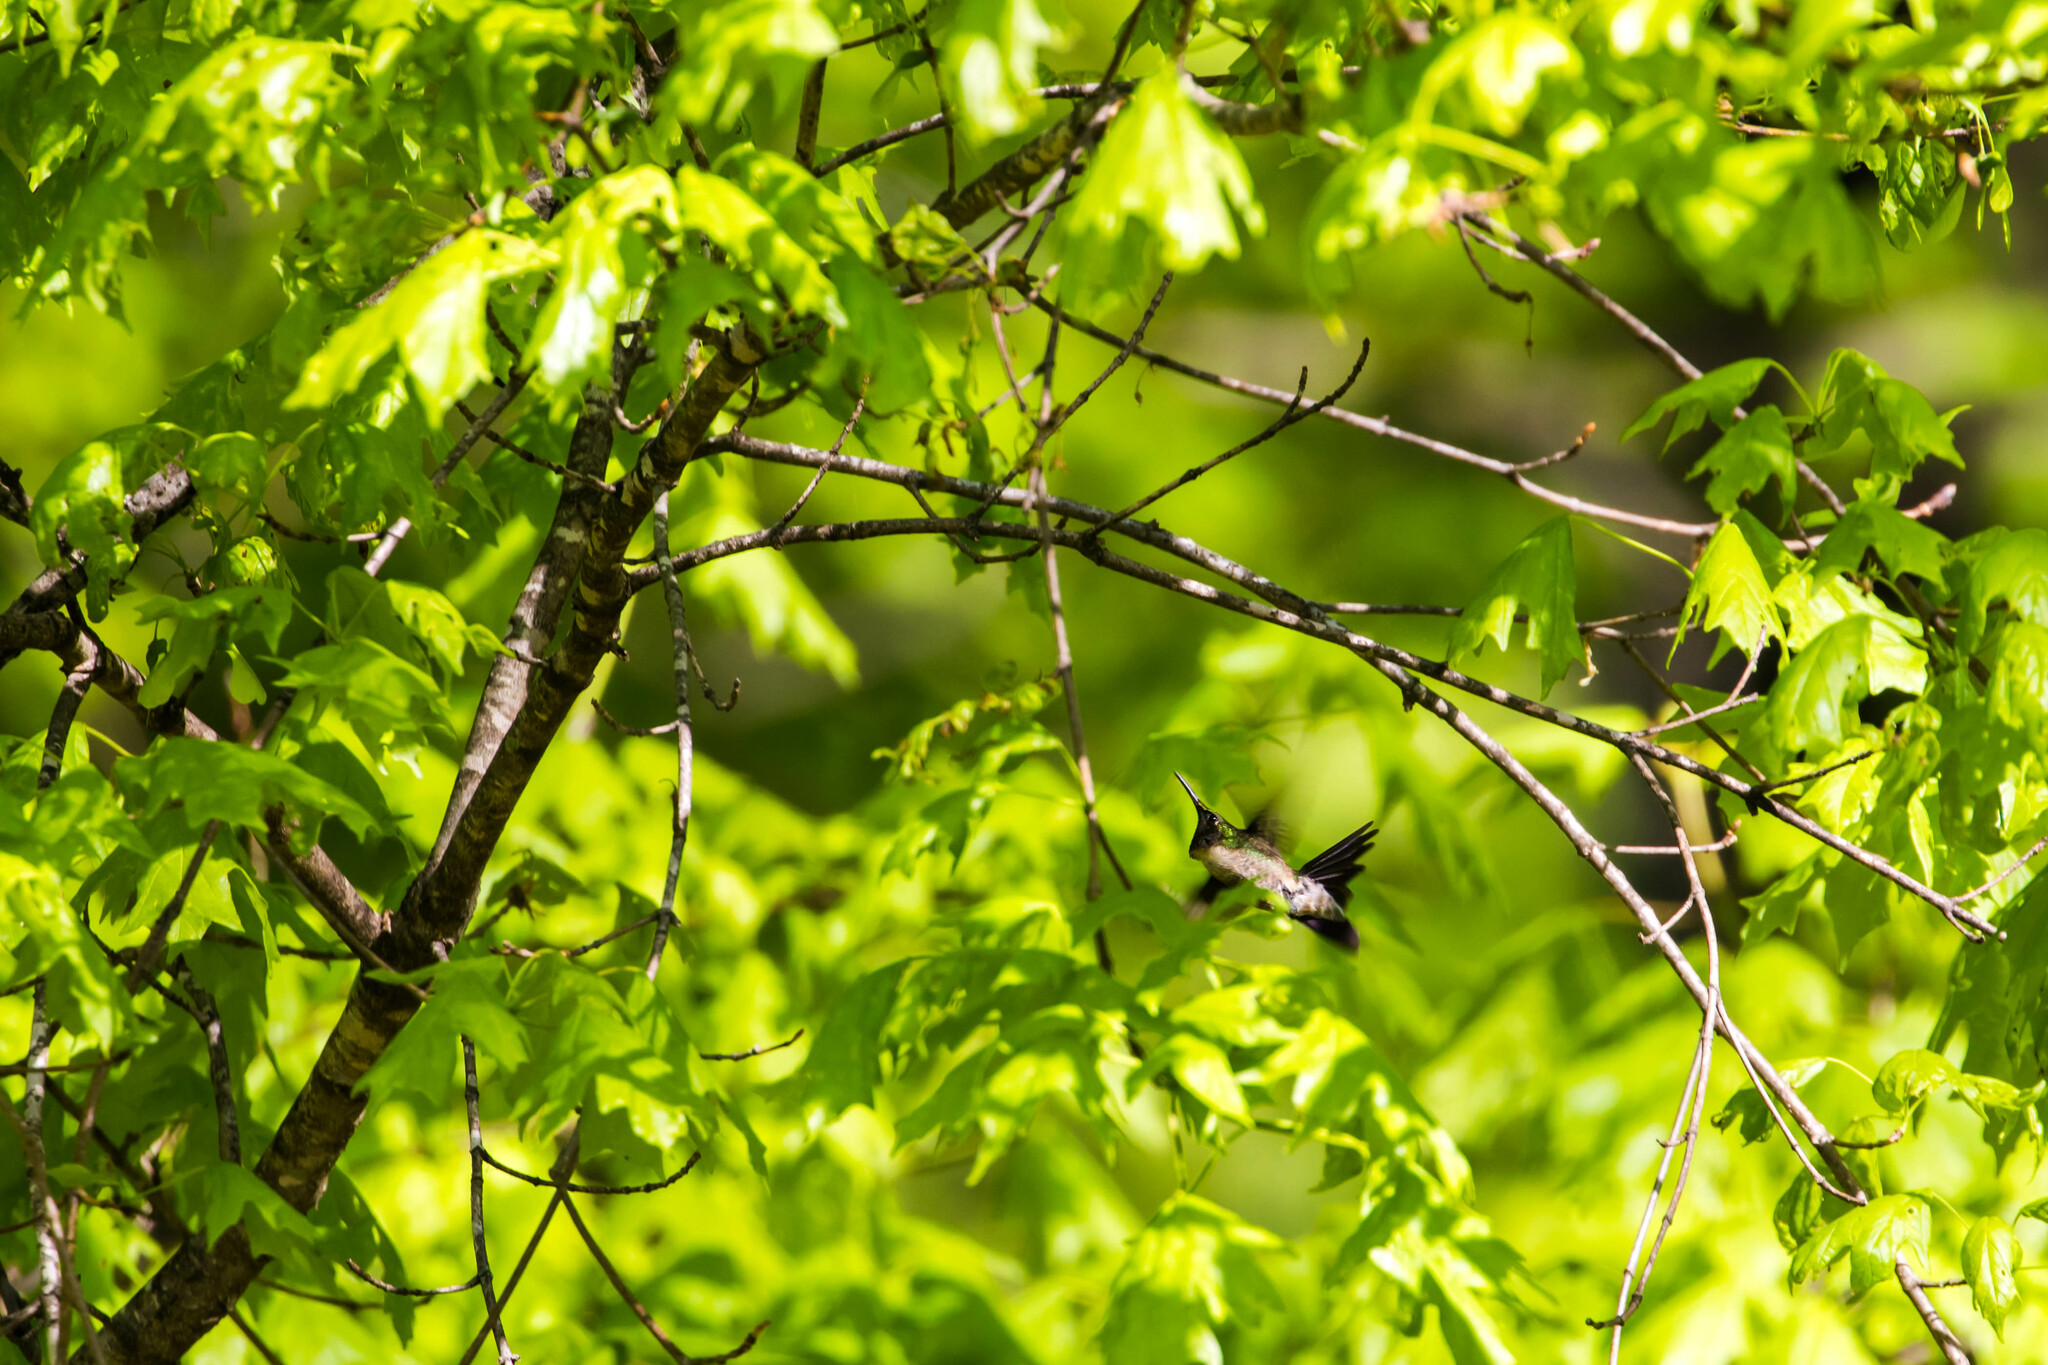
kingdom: Animalia
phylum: Chordata
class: Aves
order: Apodiformes
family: Trochilidae
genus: Archilochus
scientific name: Archilochus colubris
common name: Ruby-throated hummingbird
